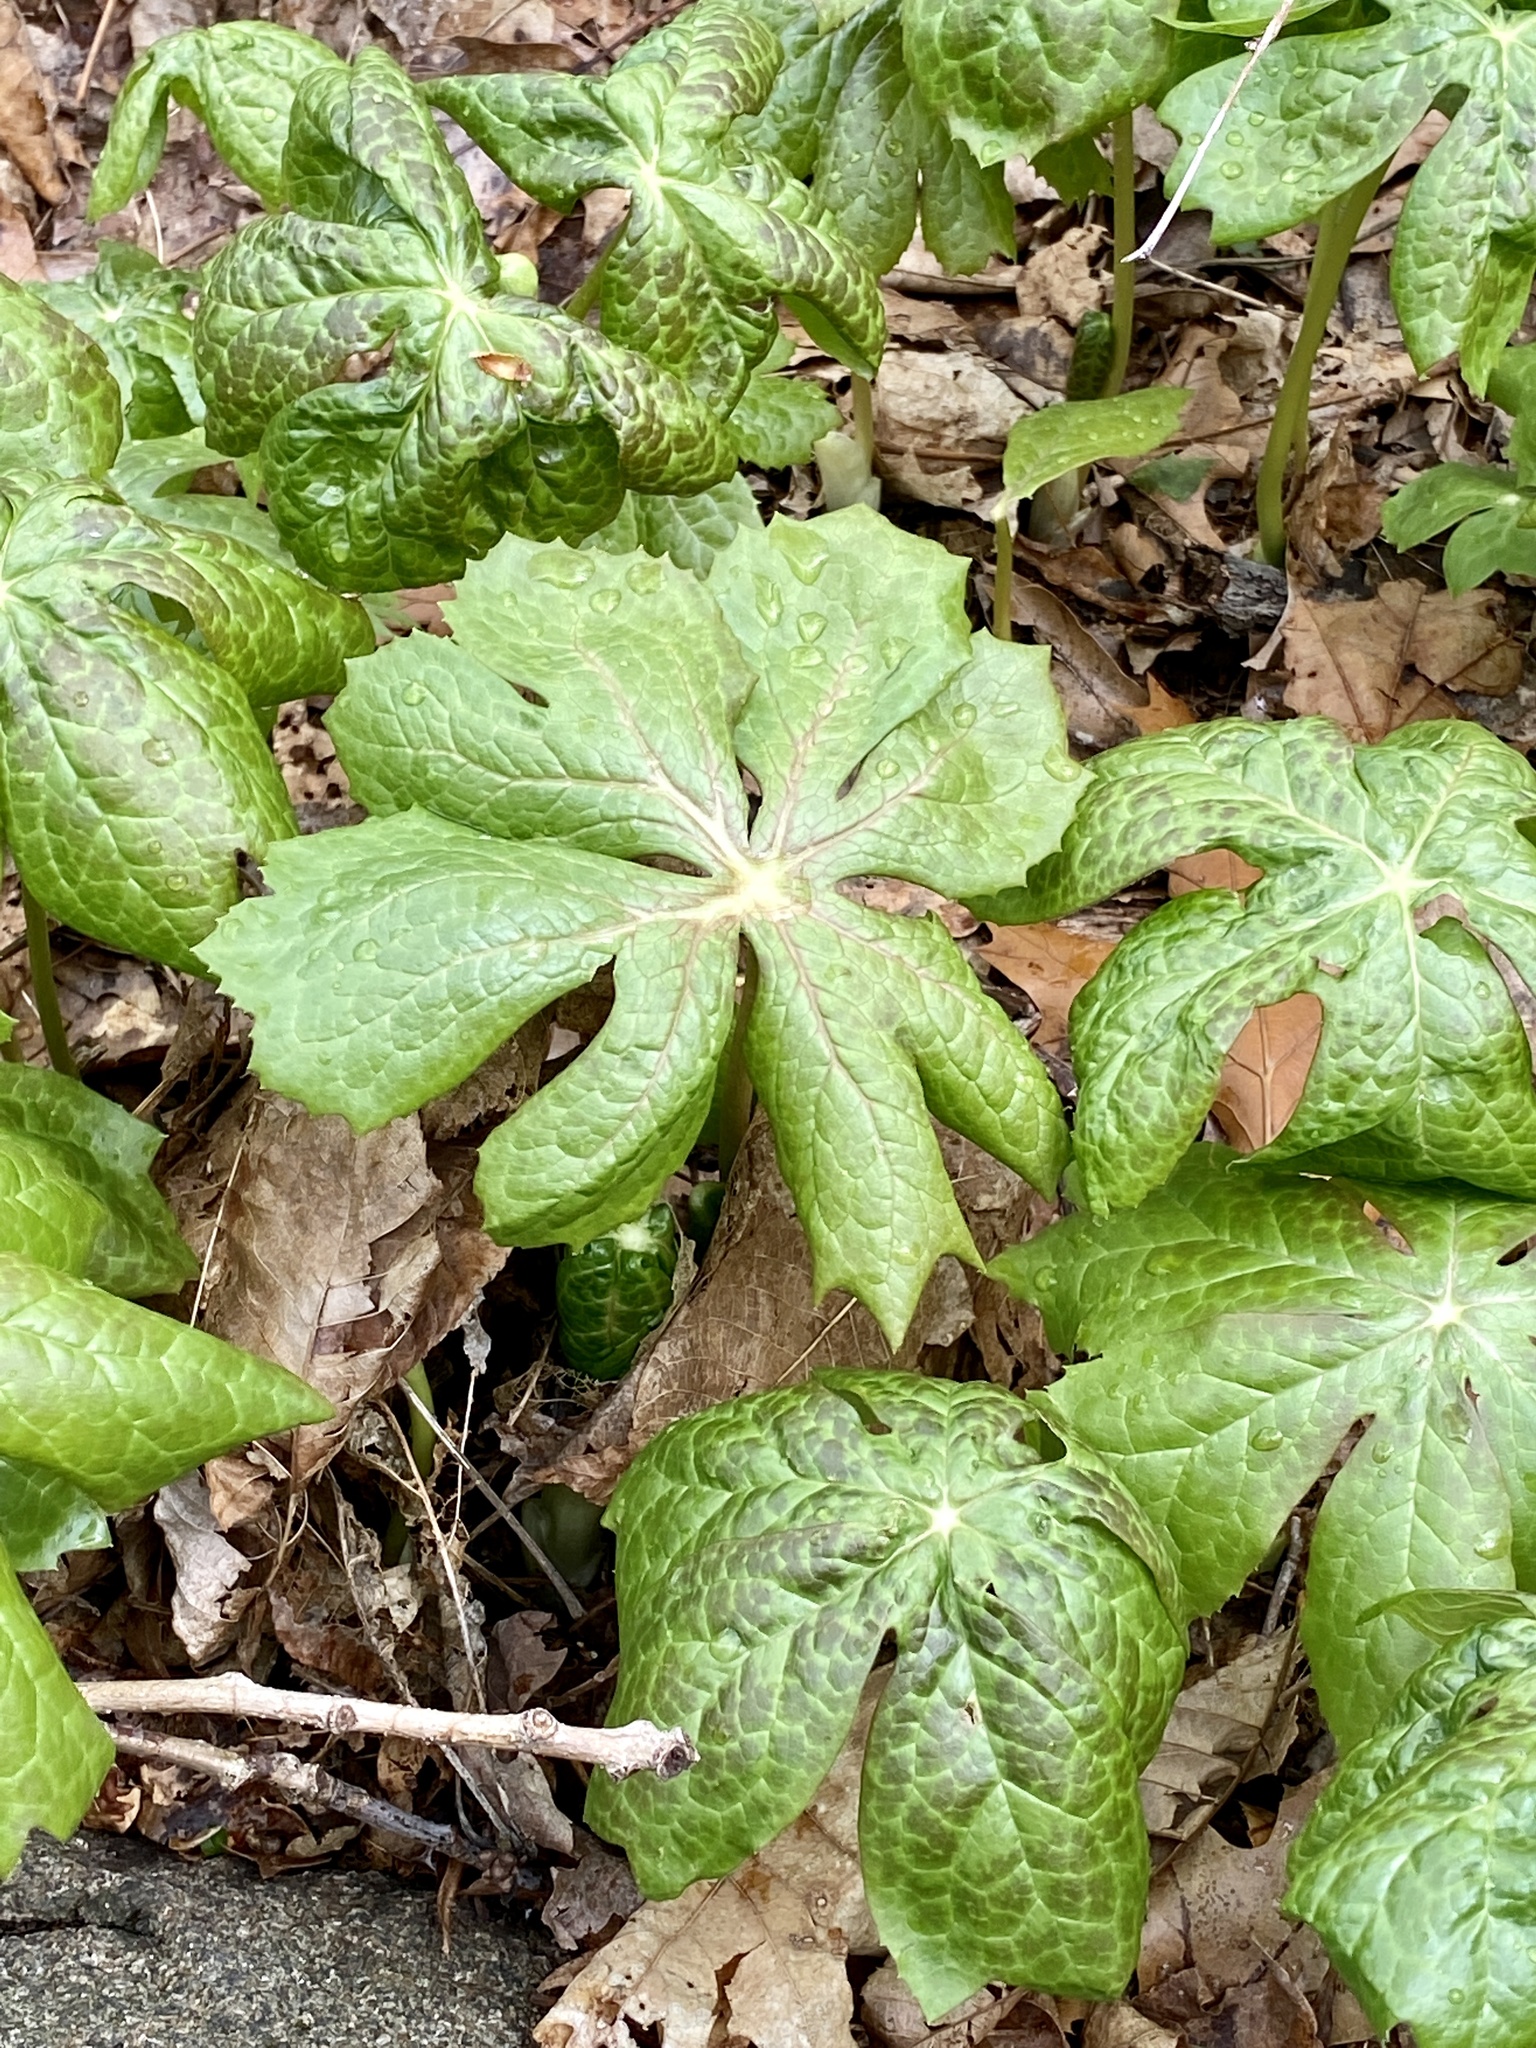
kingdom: Plantae
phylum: Tracheophyta
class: Magnoliopsida
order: Ranunculales
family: Berberidaceae
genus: Podophyllum
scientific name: Podophyllum peltatum
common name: Wild mandrake
